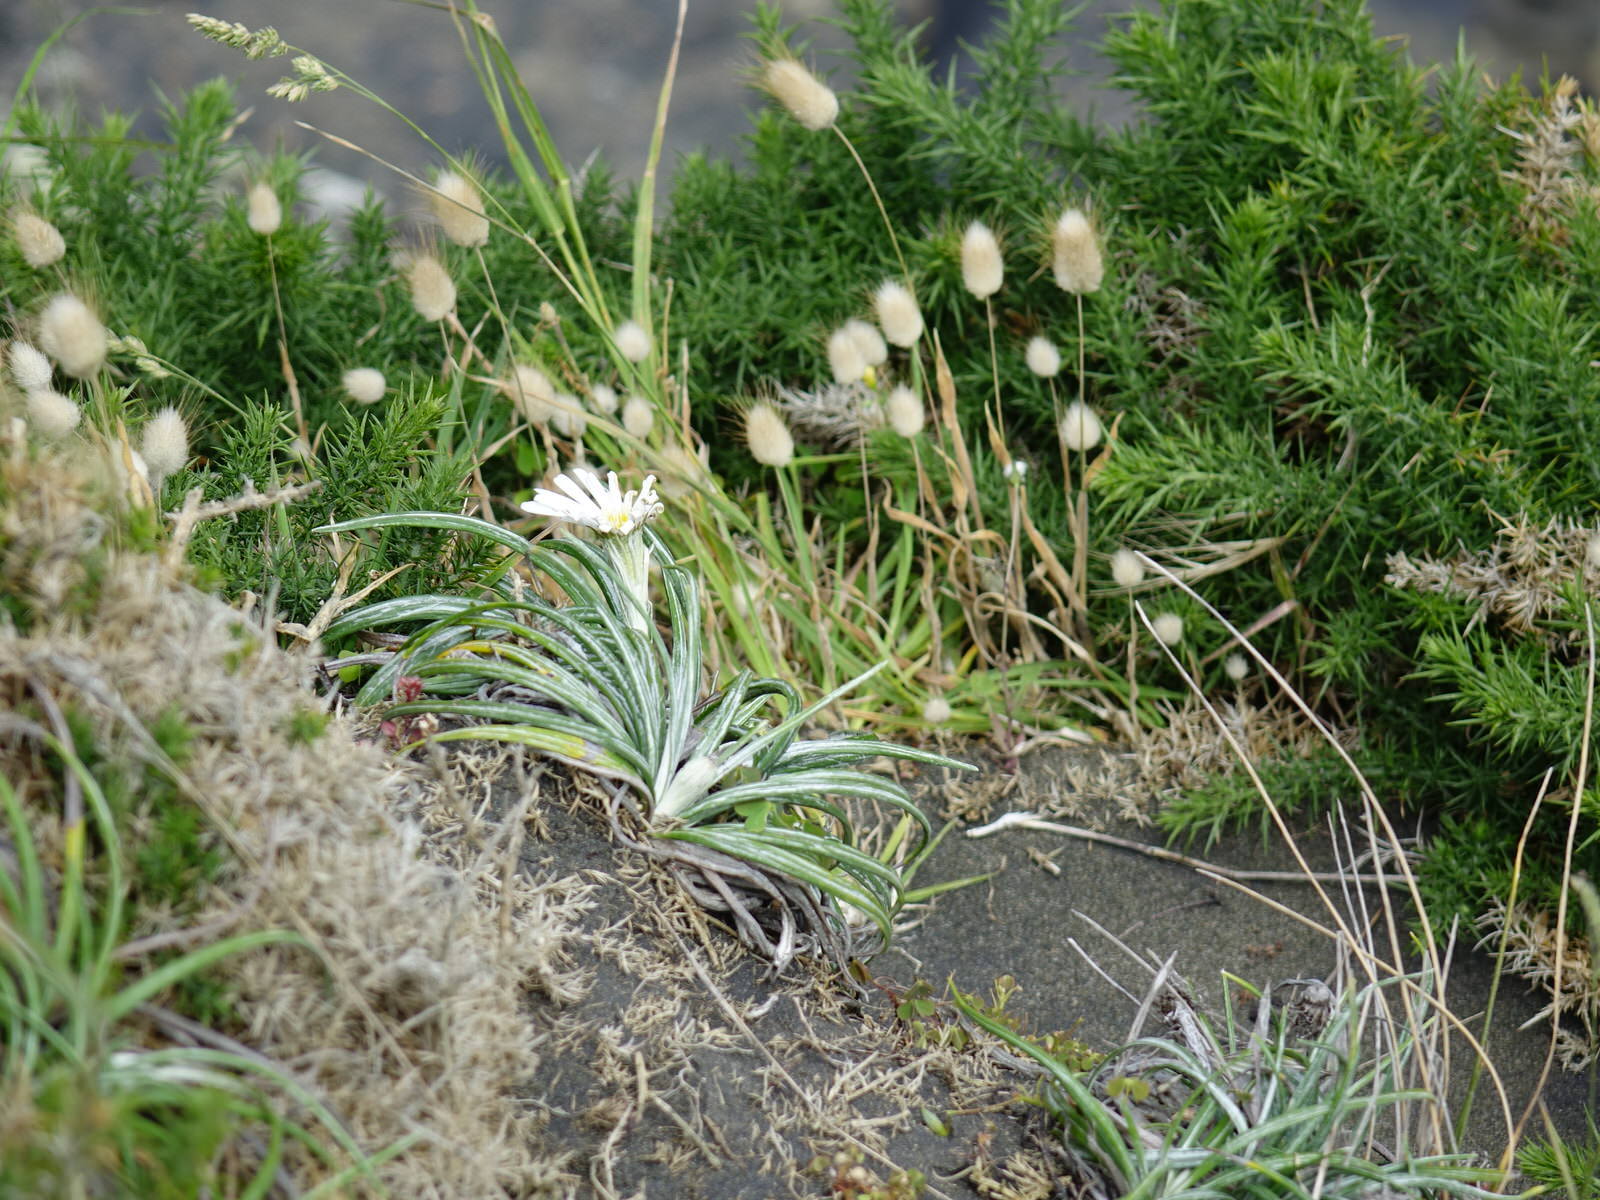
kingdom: Plantae
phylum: Tracheophyta
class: Magnoliopsida
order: Asterales
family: Asteraceae
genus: Celmisia
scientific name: Celmisia major
